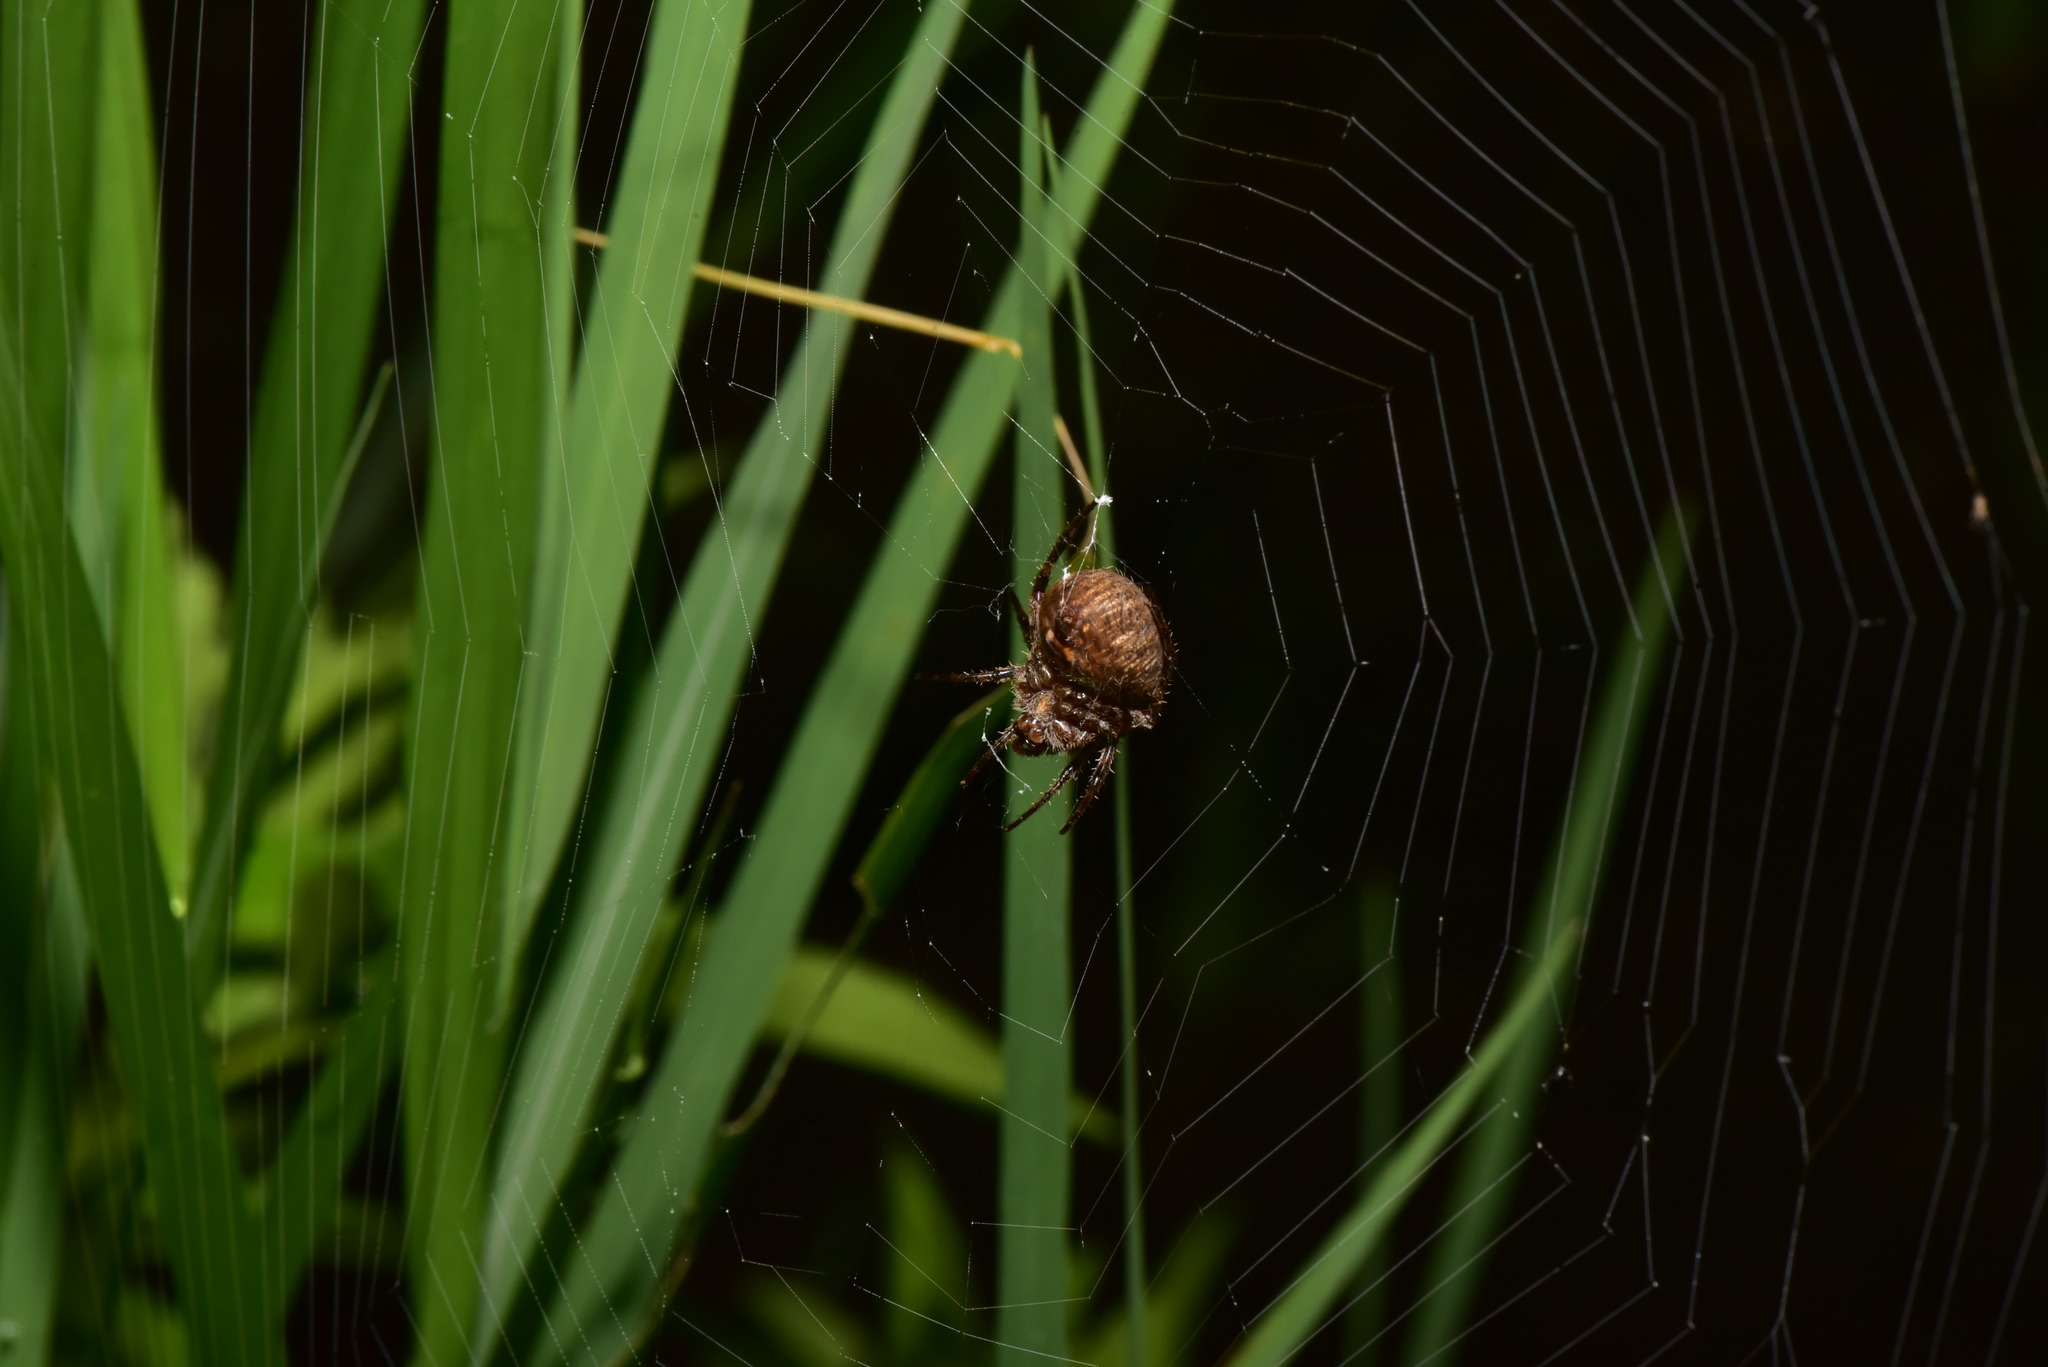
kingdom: Animalia
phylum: Arthropoda
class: Arachnida
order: Araneae
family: Araneidae
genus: Neoscona
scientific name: Neoscona punctigera
